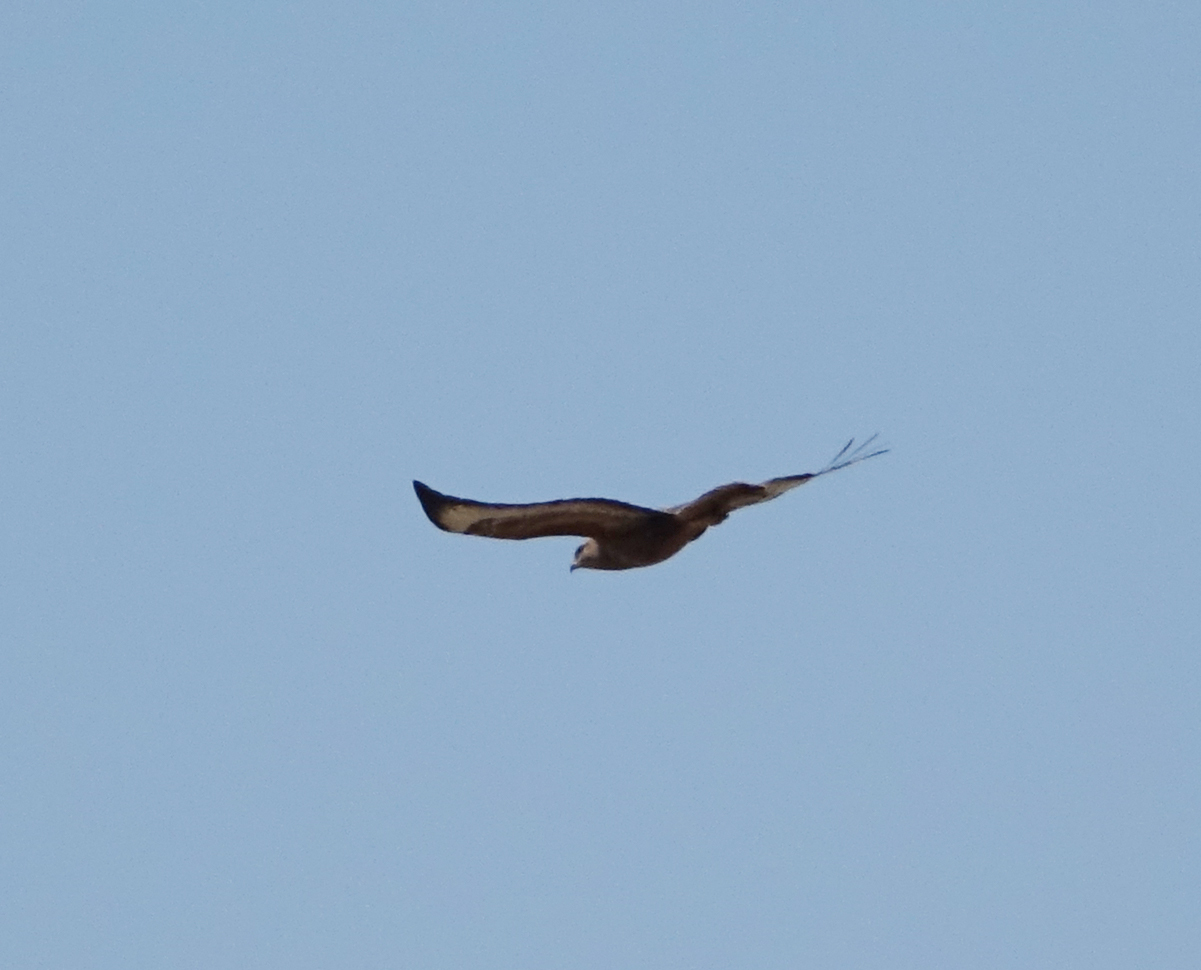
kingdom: Animalia
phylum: Chordata
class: Aves
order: Accipitriformes
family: Accipitridae
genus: Buteo
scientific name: Buteo buteo
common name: Common buzzard
